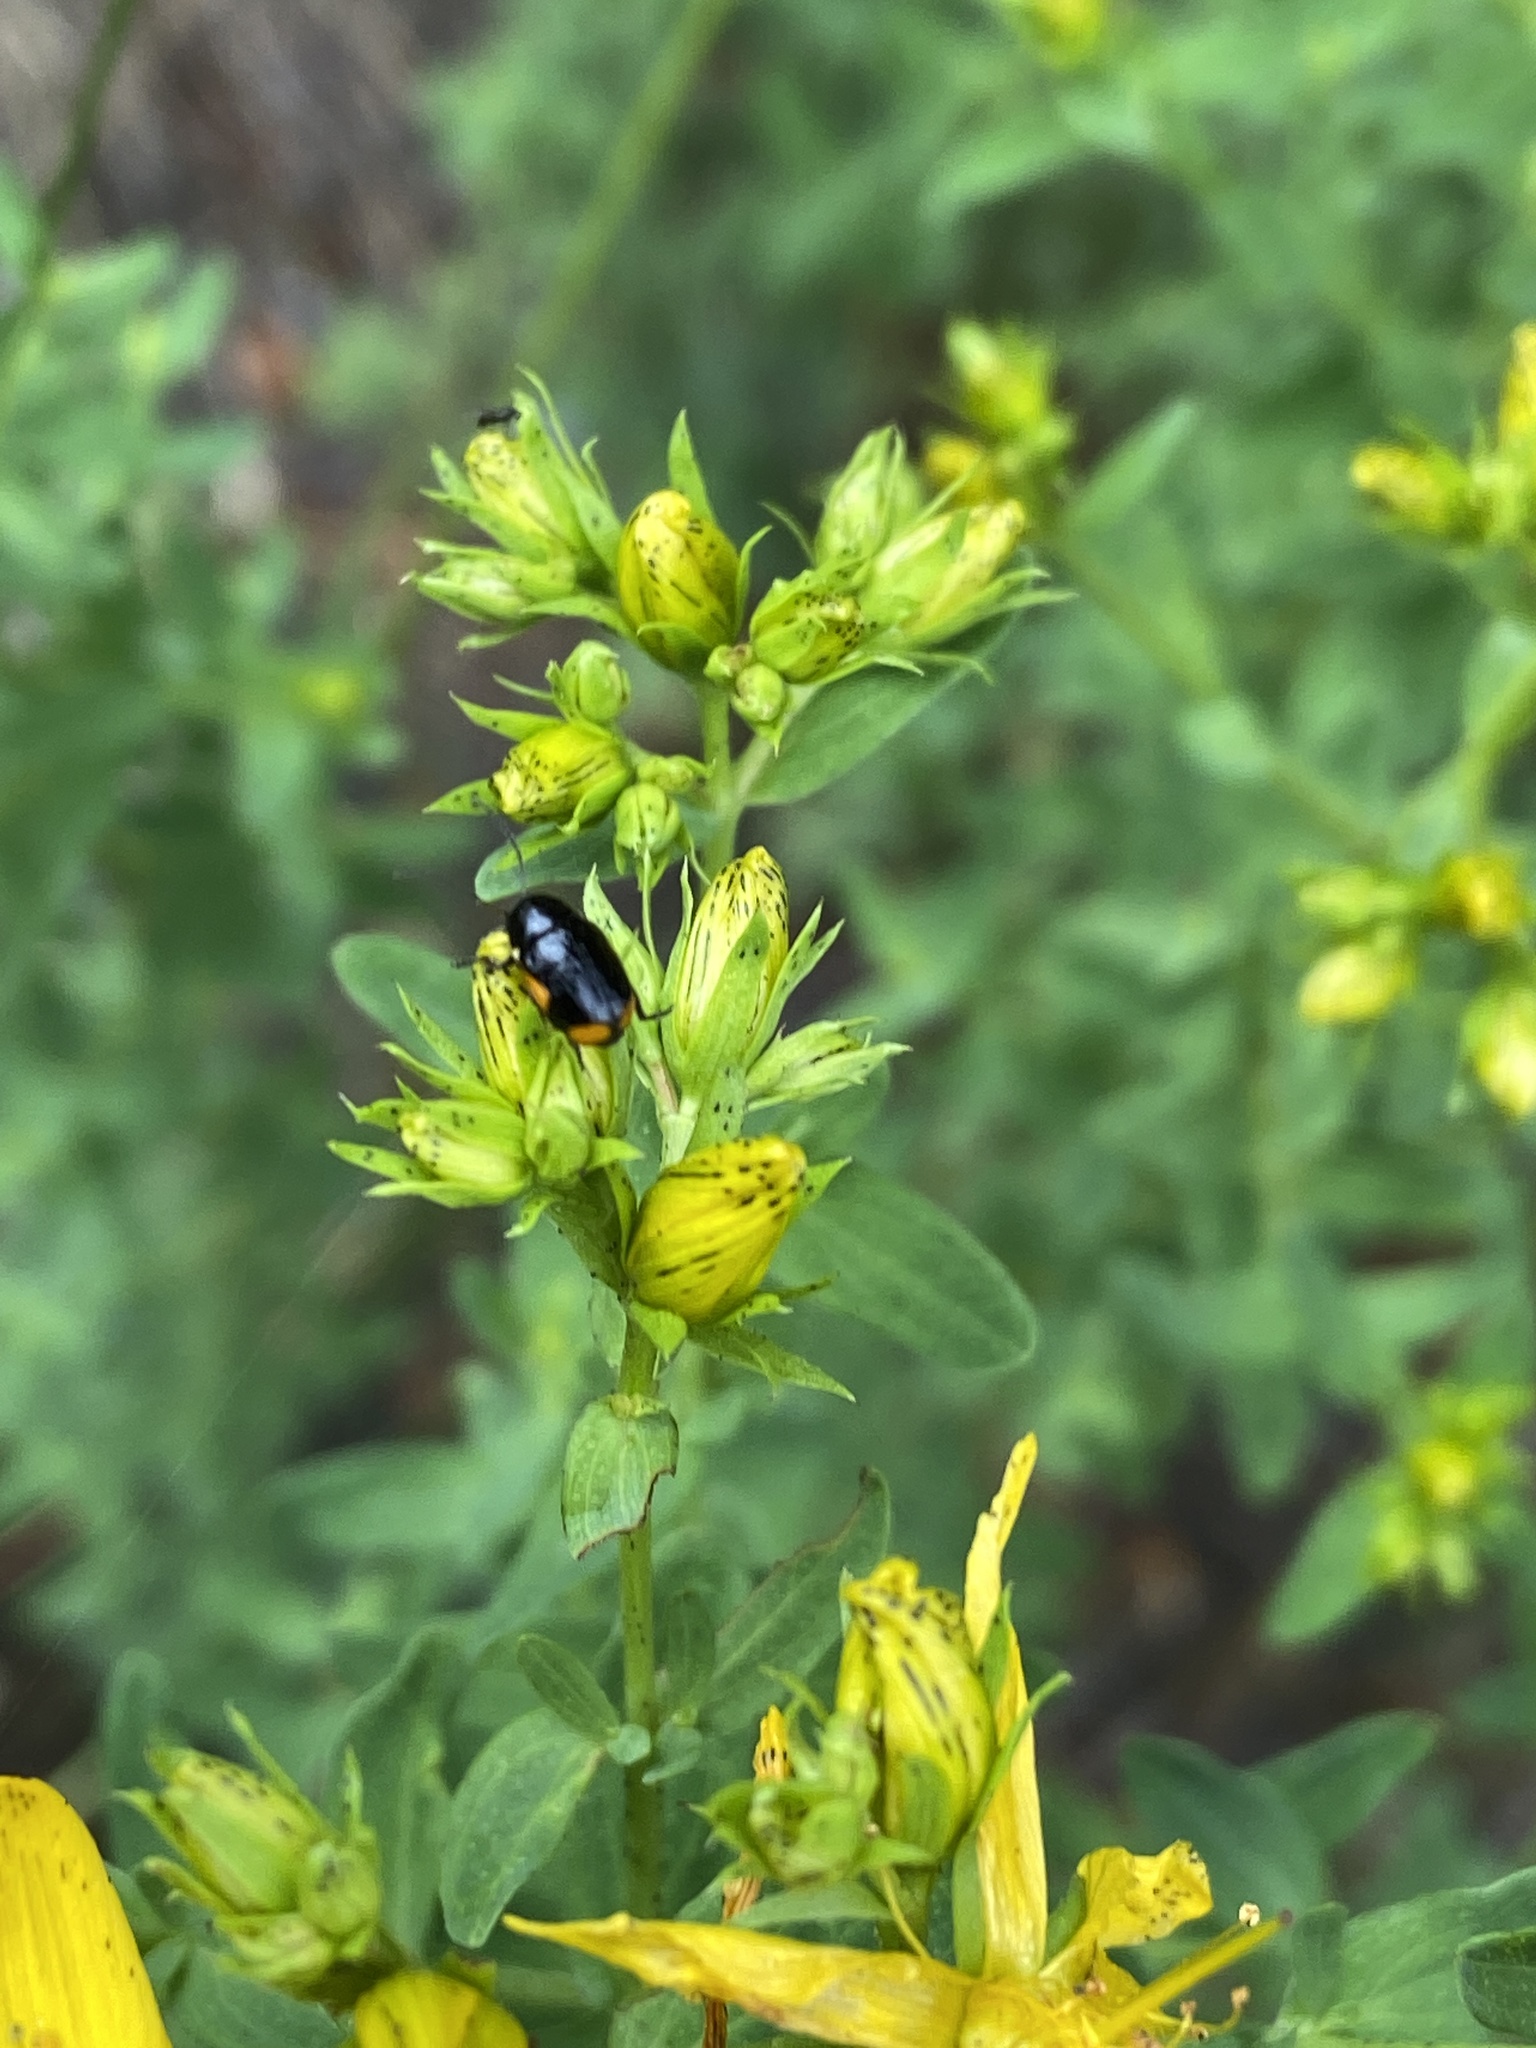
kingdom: Animalia
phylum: Arthropoda
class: Insecta
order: Coleoptera
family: Chrysomelidae
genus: Cryptocephalus
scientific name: Cryptocephalus moraei
